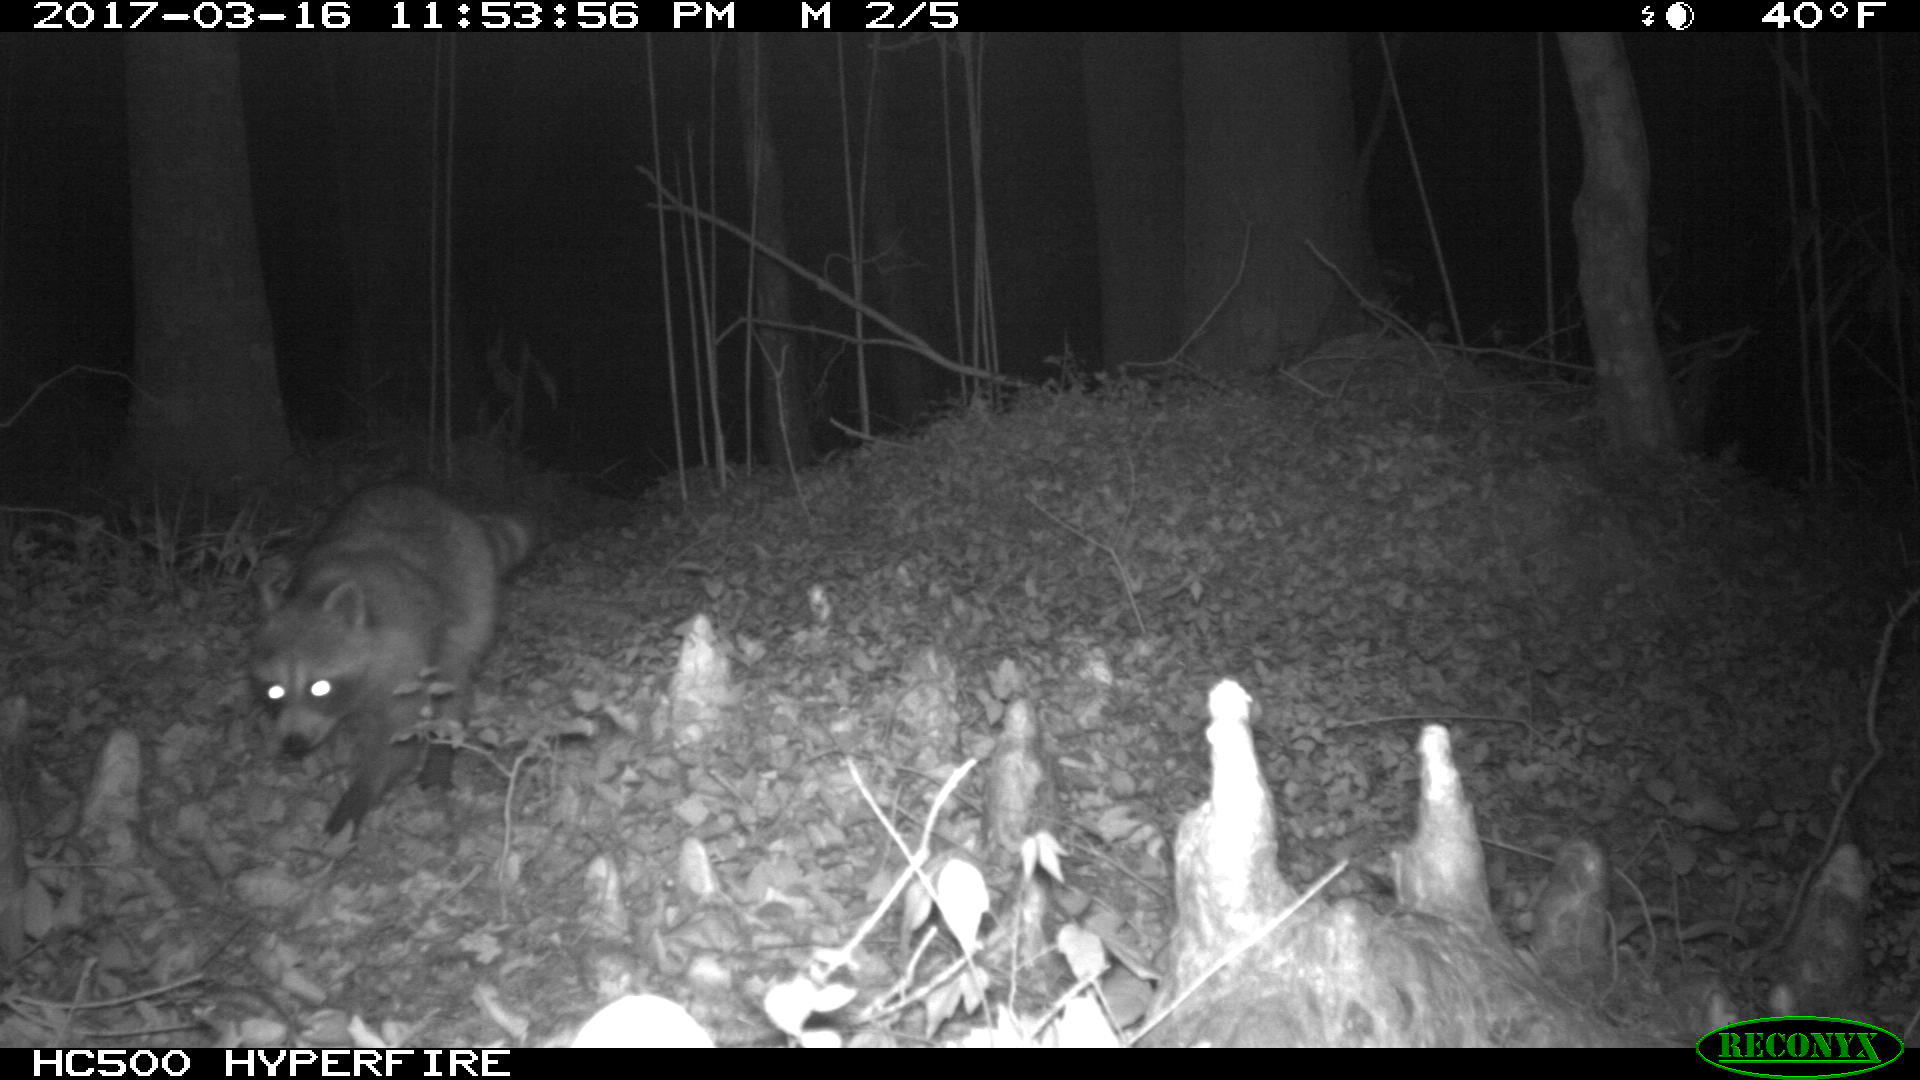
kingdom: Animalia
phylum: Chordata
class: Mammalia
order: Carnivora
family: Procyonidae
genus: Procyon
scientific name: Procyon lotor
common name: Raccoon
